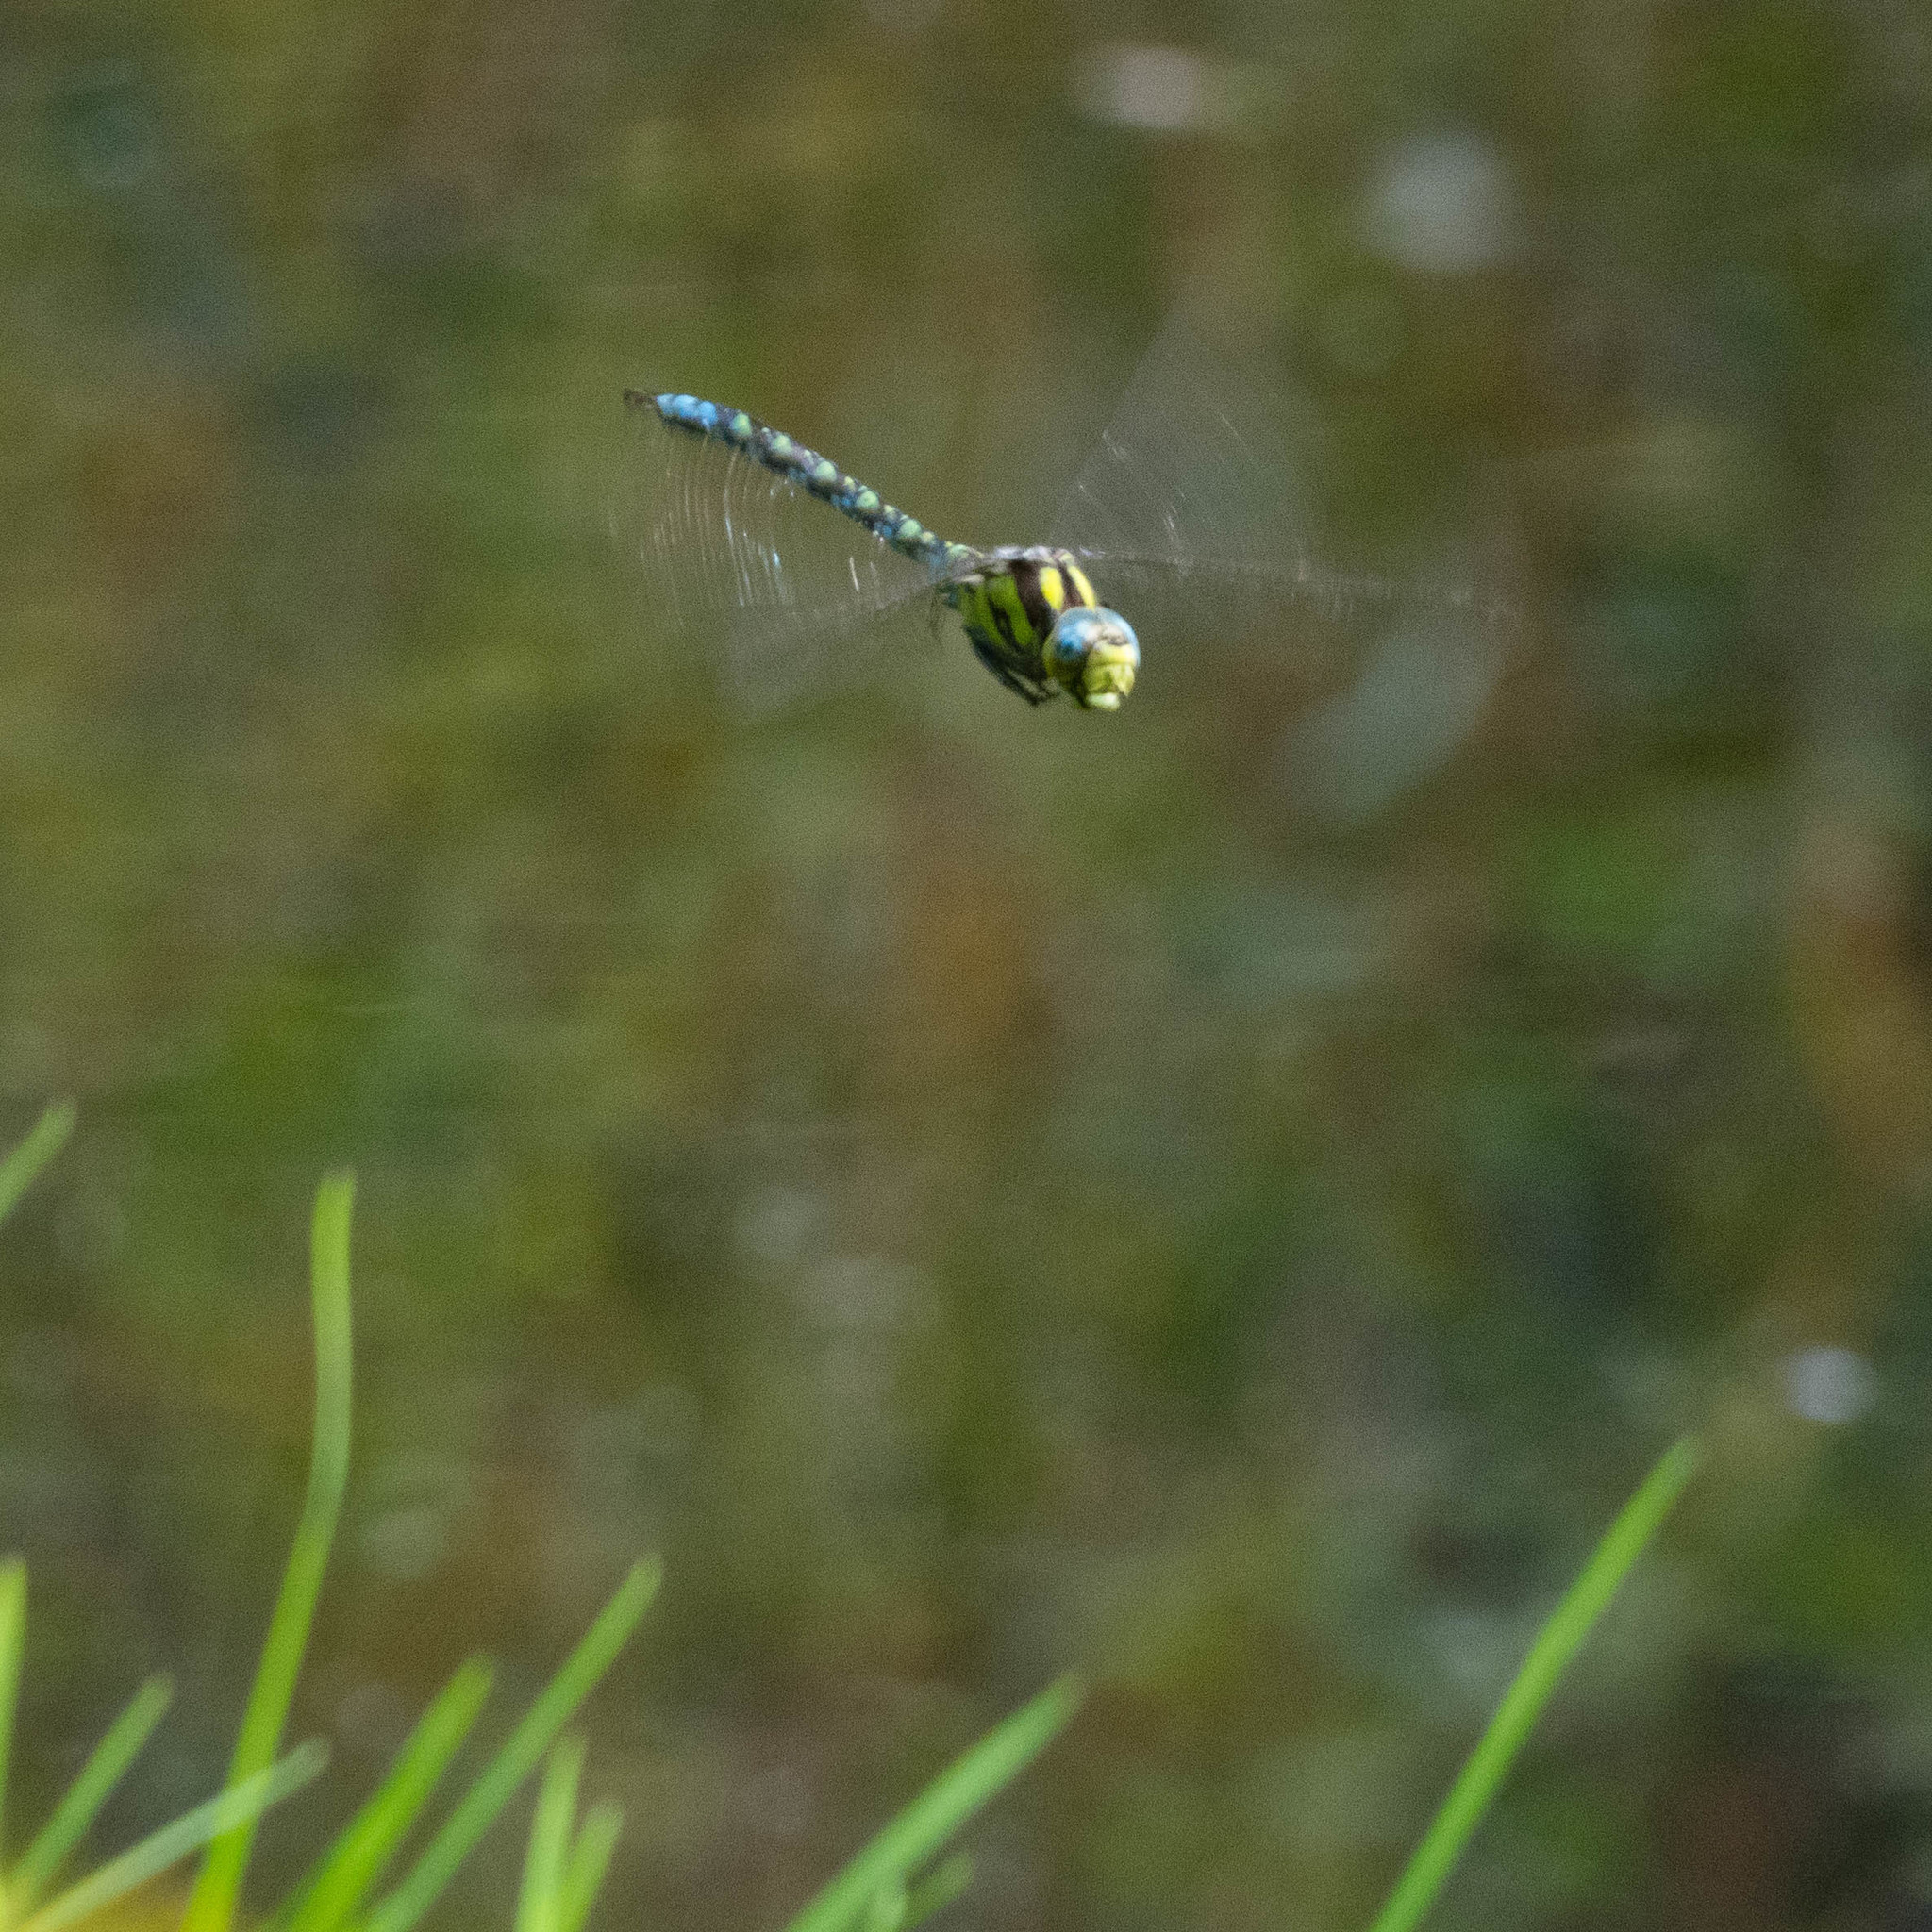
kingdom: Animalia
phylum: Arthropoda
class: Insecta
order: Odonata
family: Aeshnidae
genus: Aeshna
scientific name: Aeshna cyanea
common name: Southern hawker
